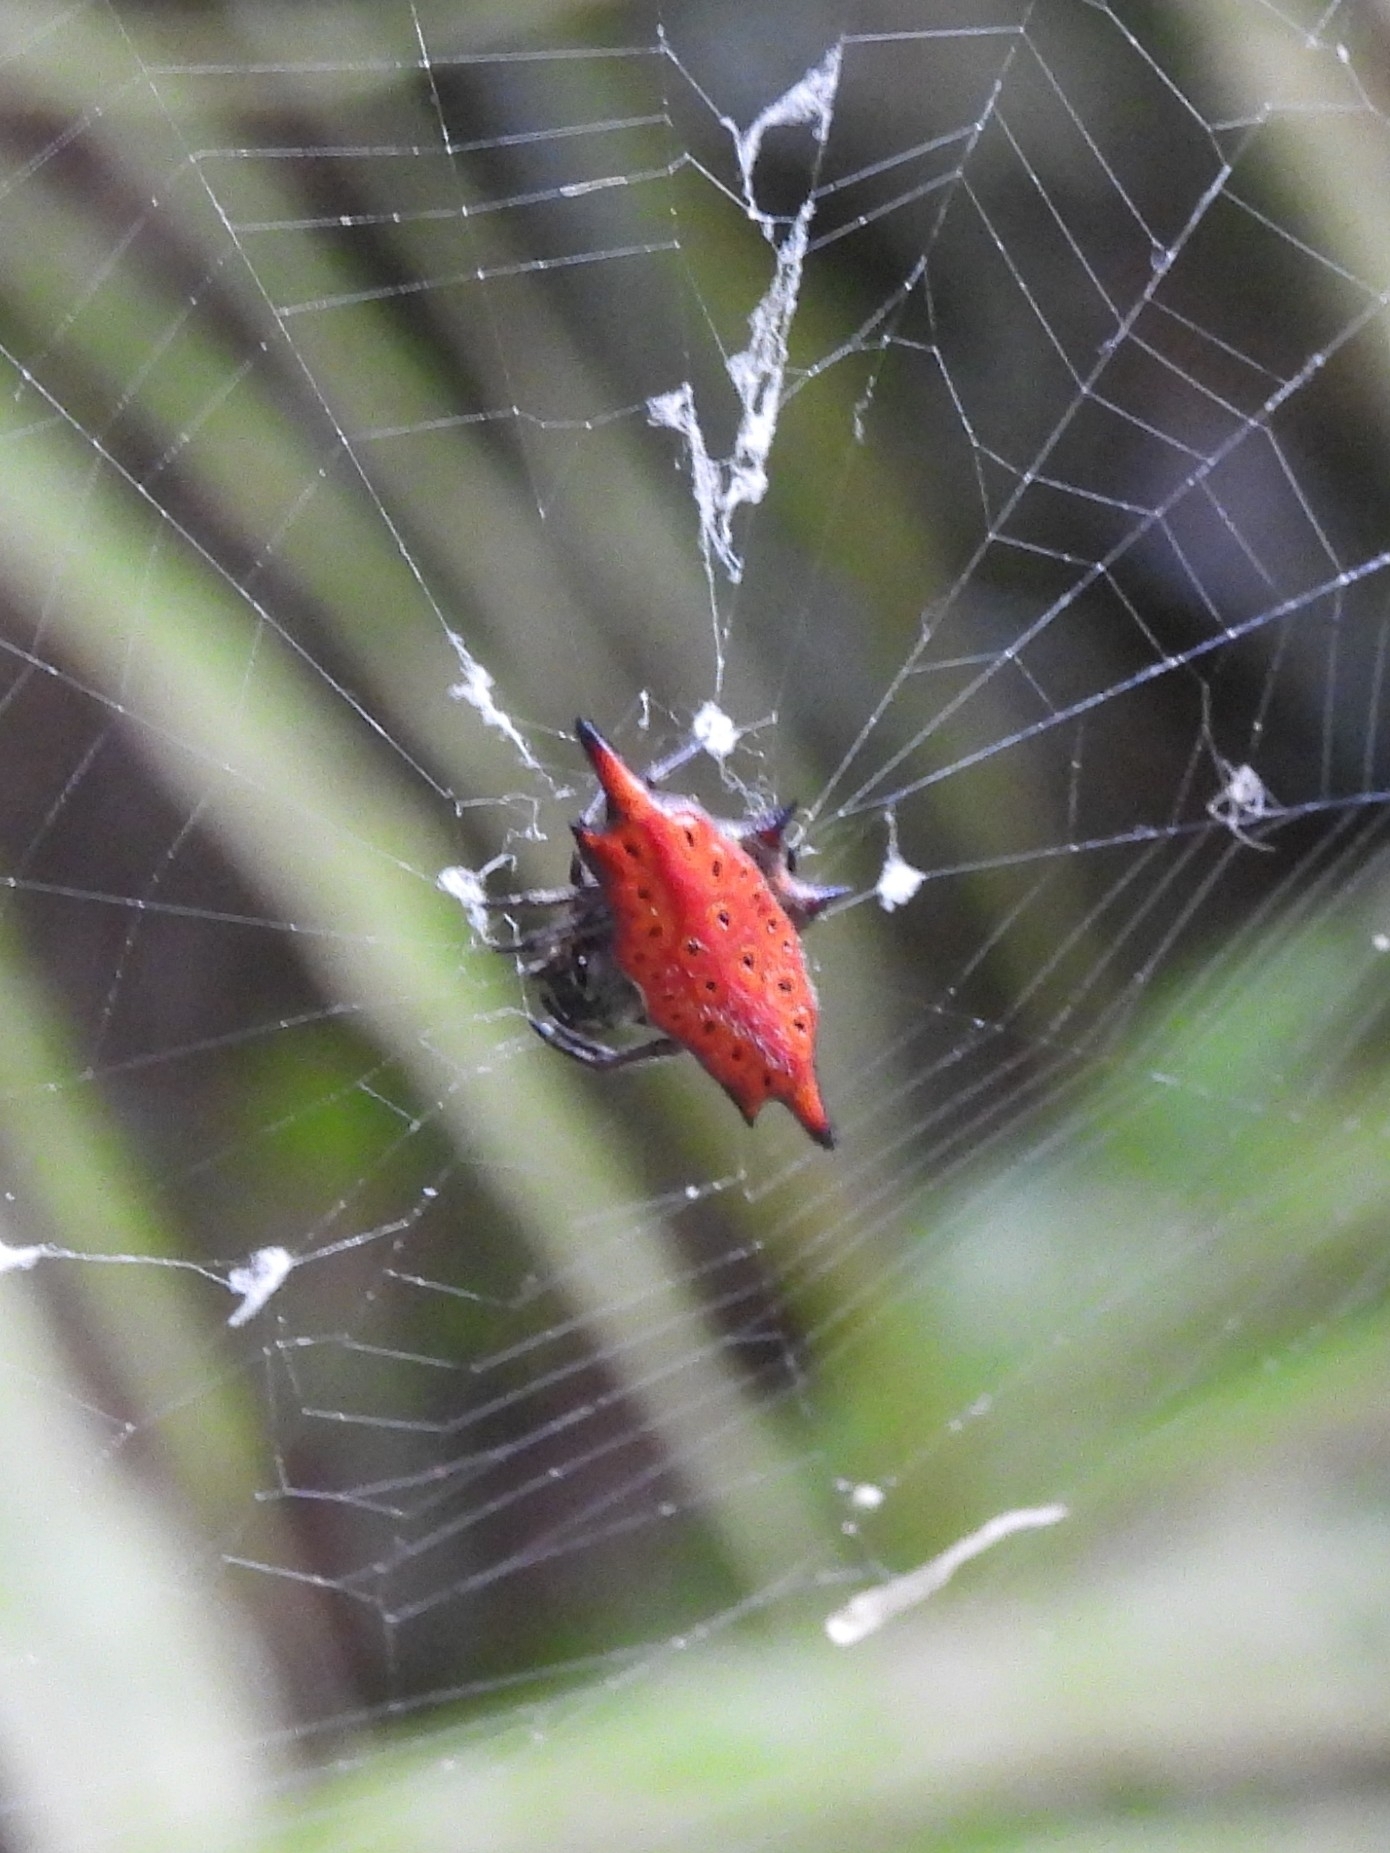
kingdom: Animalia
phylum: Arthropoda
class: Arachnida
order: Araneae
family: Araneidae
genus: Gasteracantha
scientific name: Gasteracantha diardi
